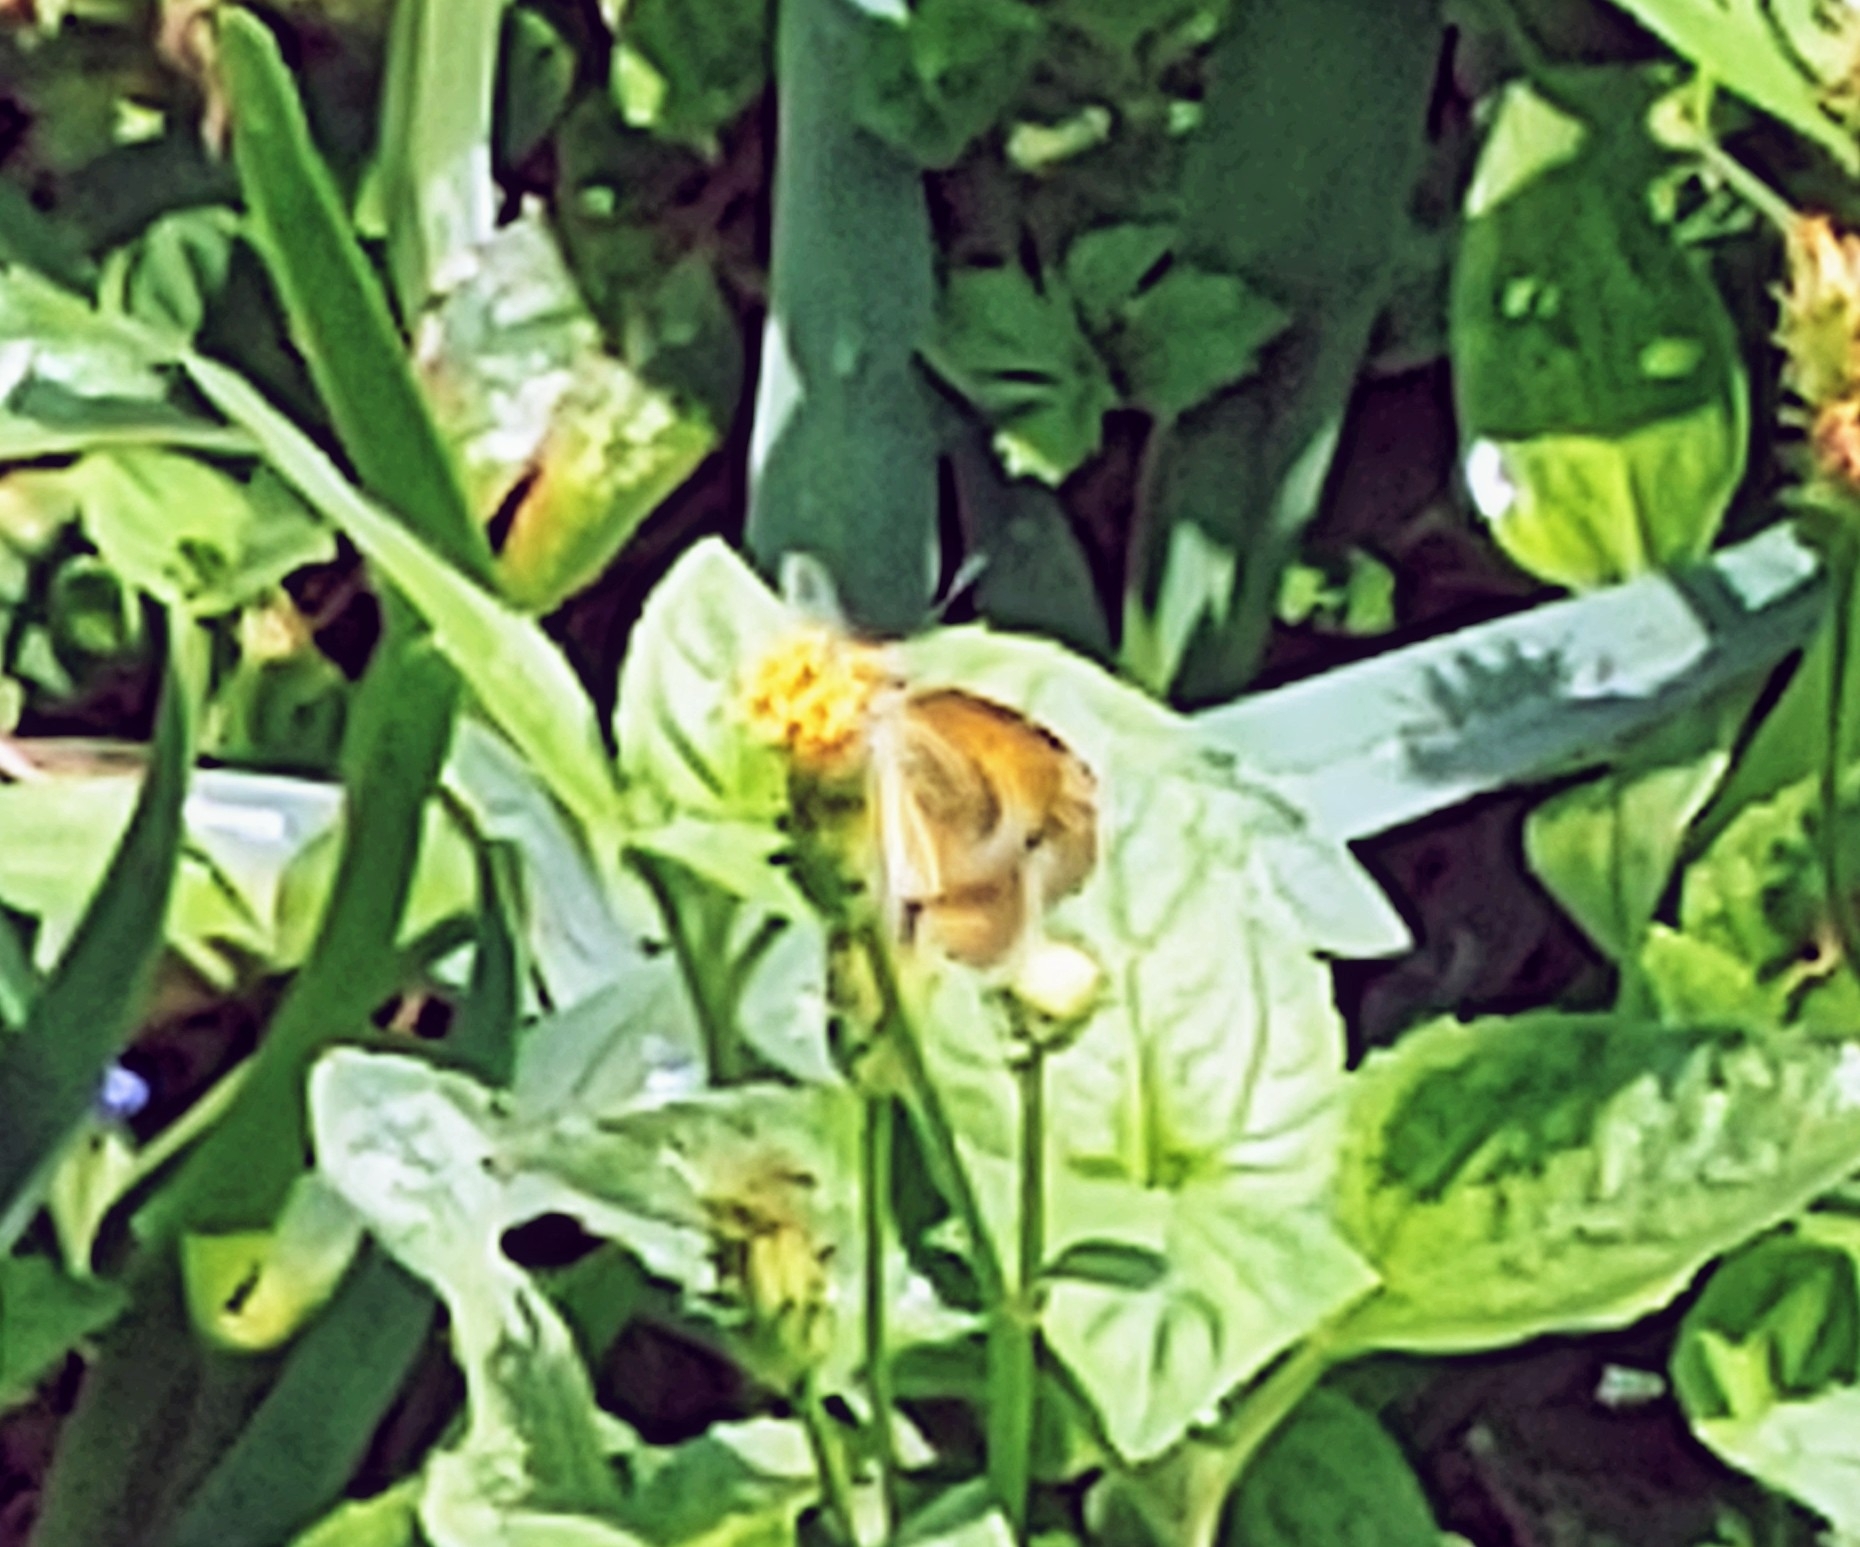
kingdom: Animalia
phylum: Arthropoda
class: Insecta
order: Lepidoptera
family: Pieridae
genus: Nathalis
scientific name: Nathalis iole
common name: Dainty sulphur
